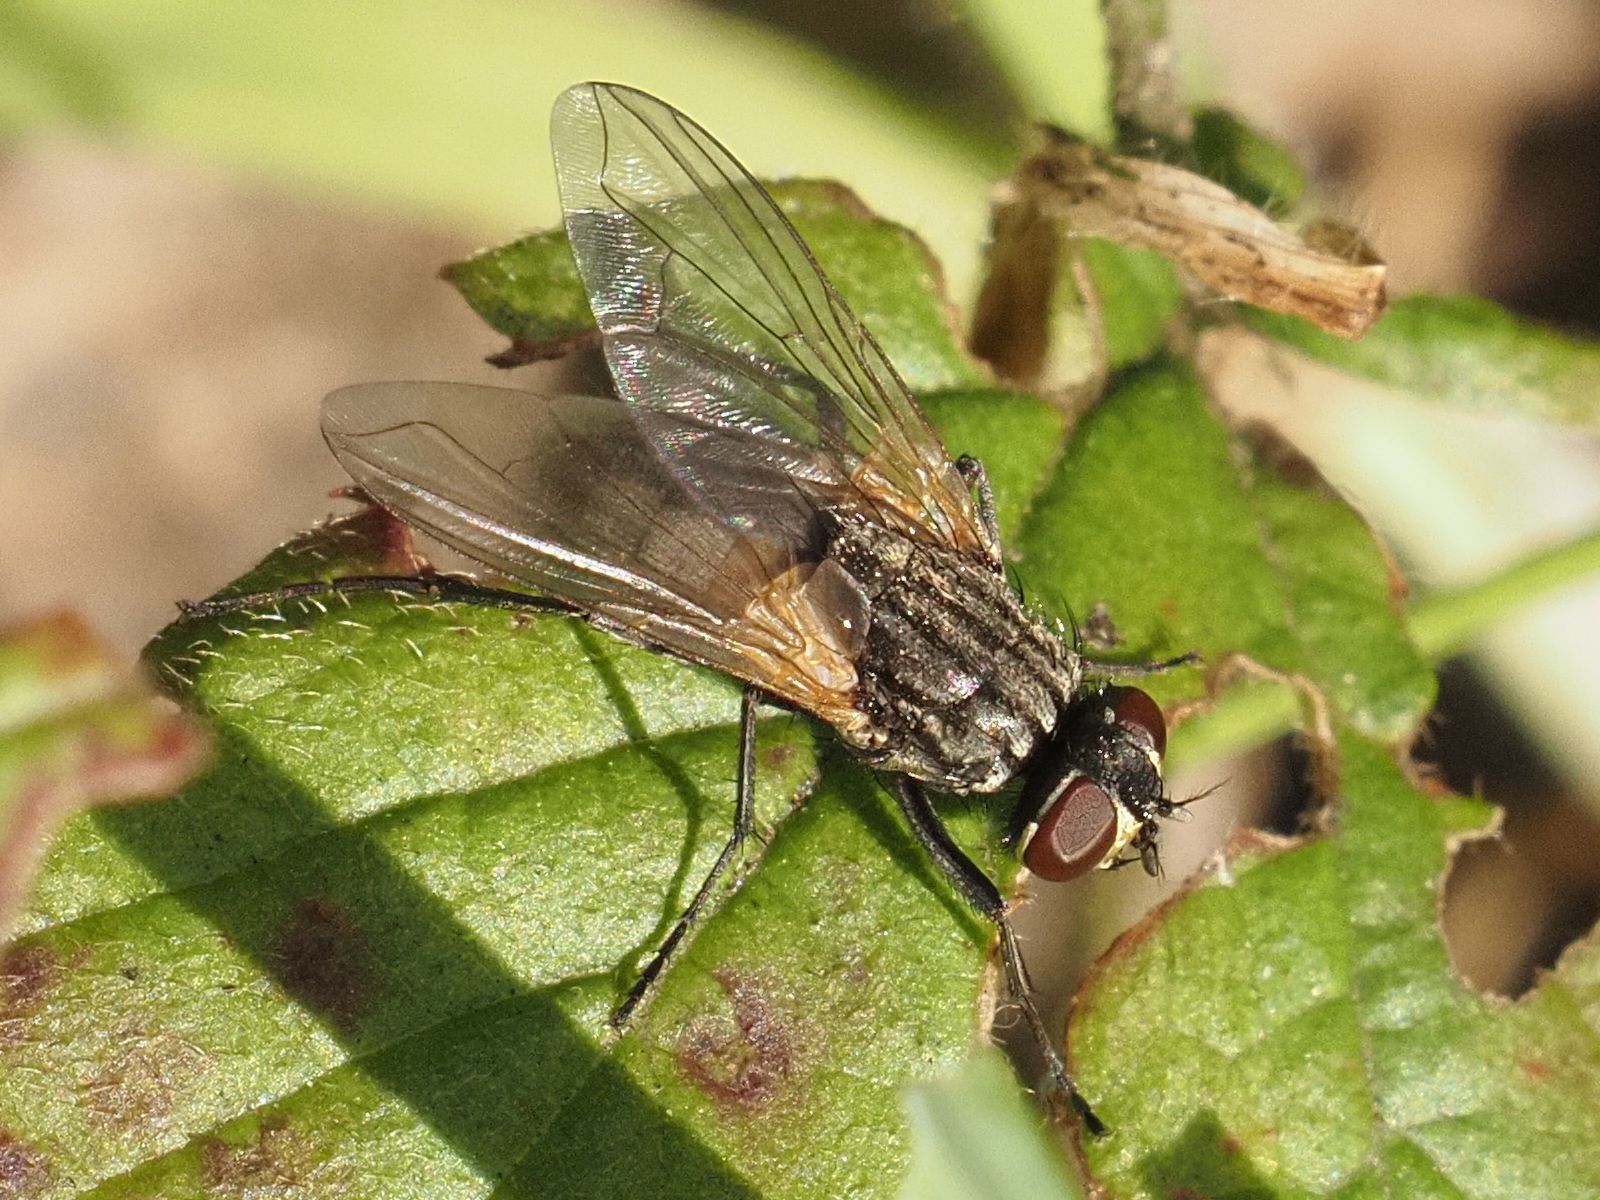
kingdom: Animalia
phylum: Arthropoda
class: Insecta
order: Diptera
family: Muscidae
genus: Musca
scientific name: Musca domestica
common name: House fly
